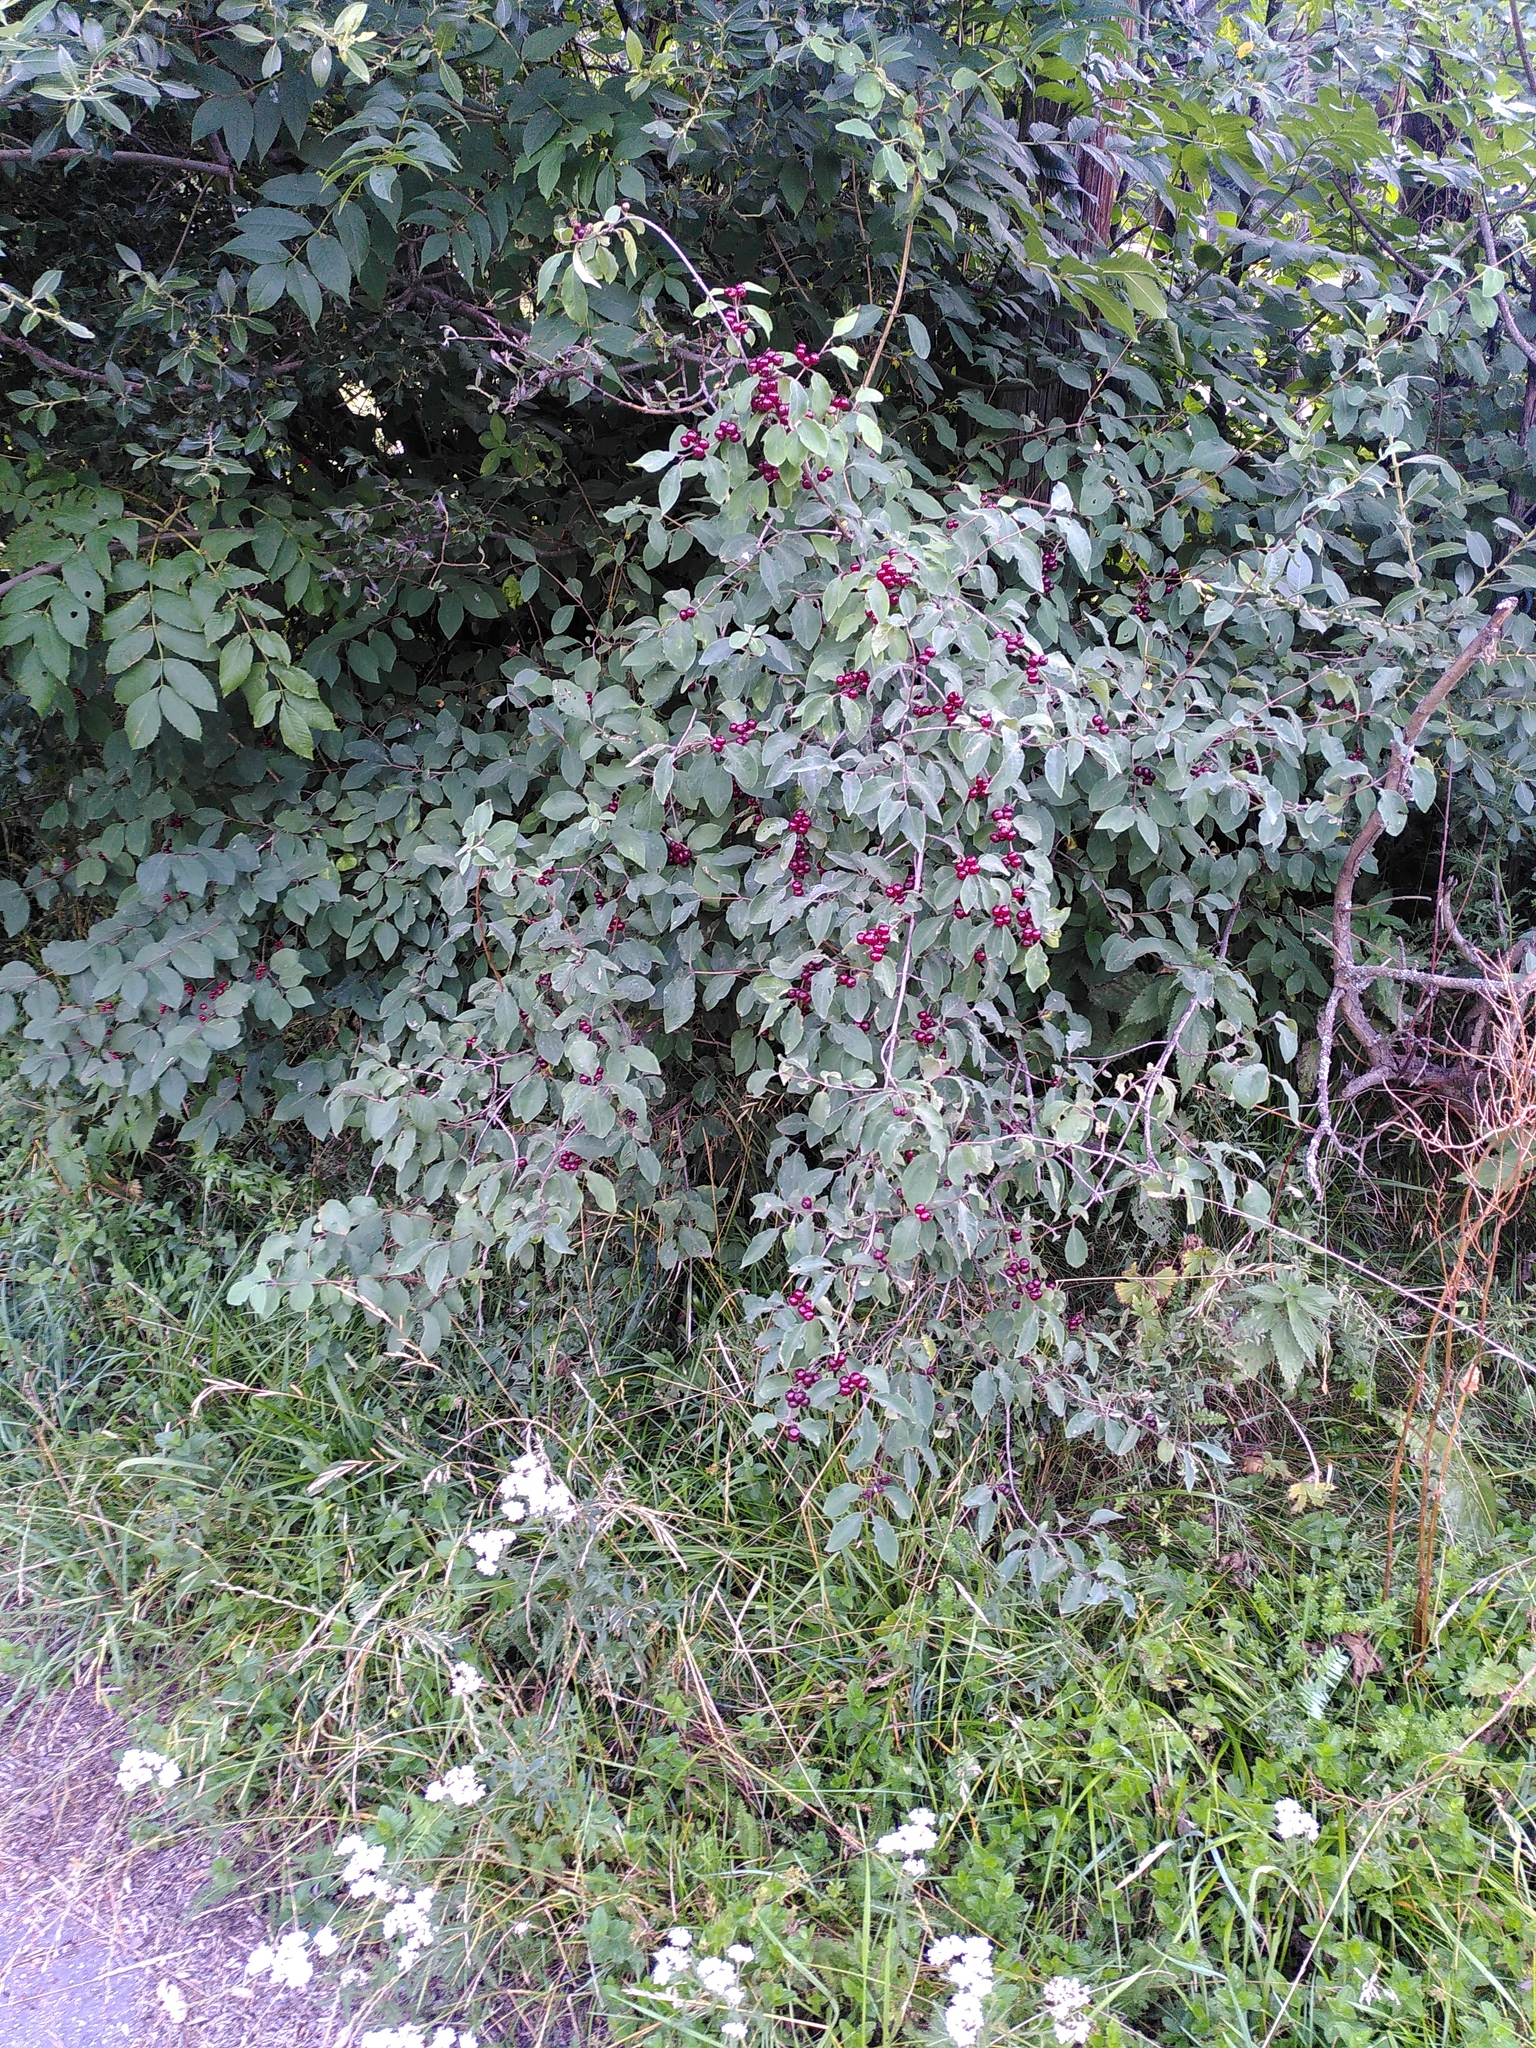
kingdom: Plantae
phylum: Tracheophyta
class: Magnoliopsida
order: Dipsacales
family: Caprifoliaceae
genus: Lonicera
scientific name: Lonicera xylosteum
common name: Fly honeysuckle
